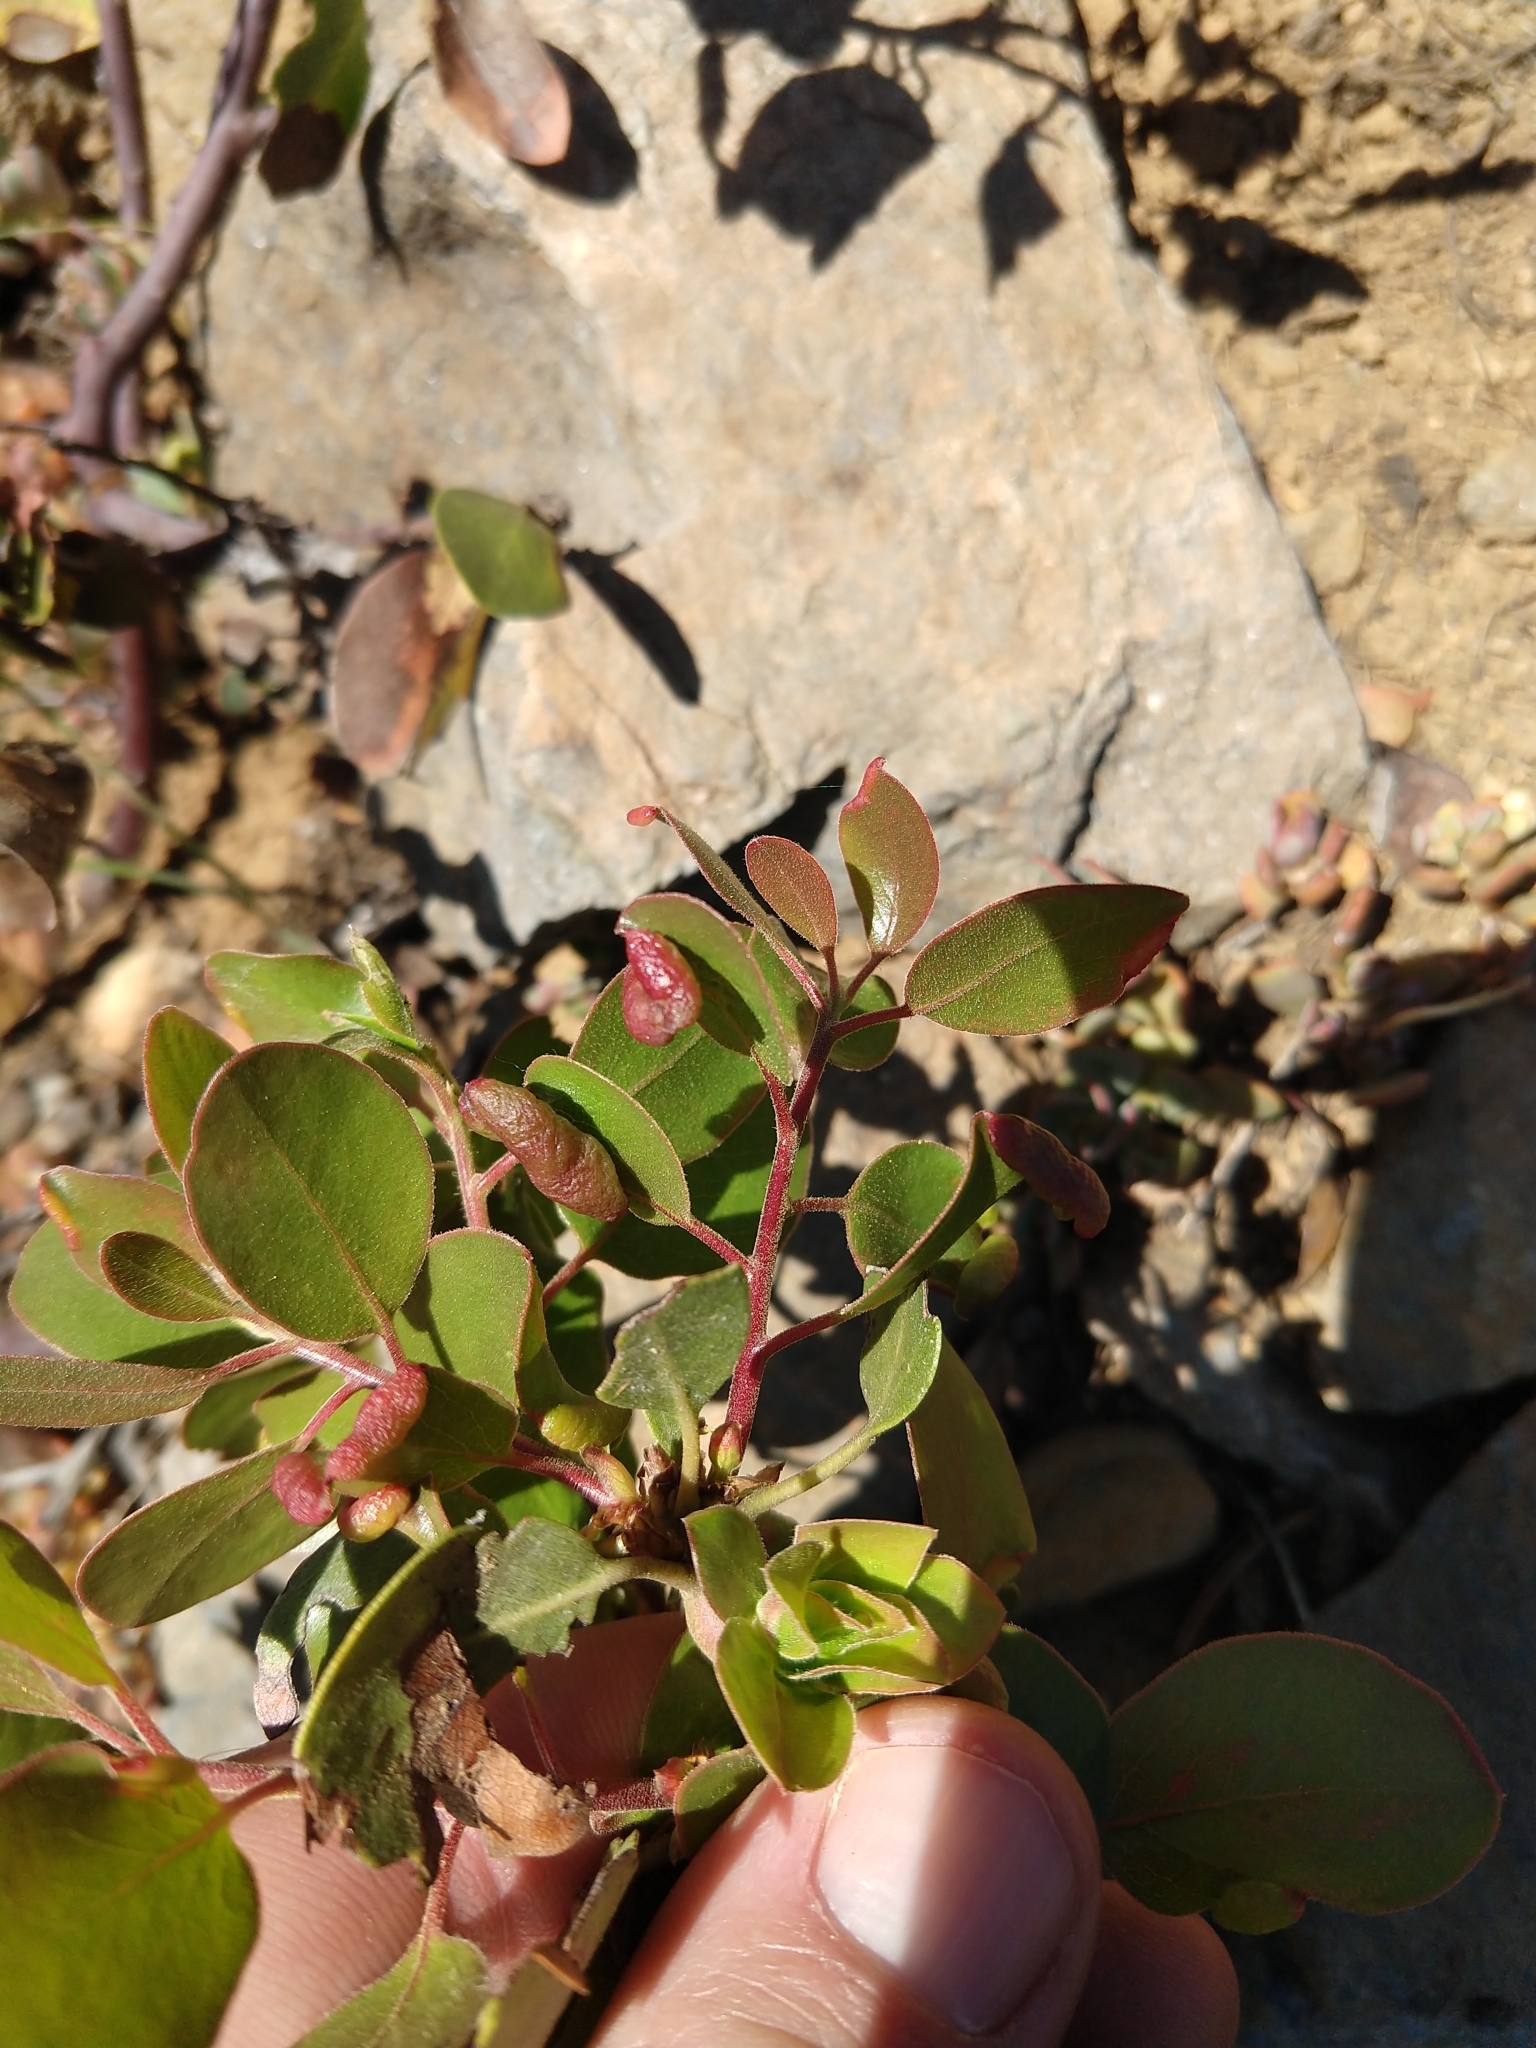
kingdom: Animalia
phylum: Arthropoda
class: Insecta
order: Hemiptera
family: Aphididae
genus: Tamalia
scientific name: Tamalia coweni
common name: Manzanita leafgall aphid
